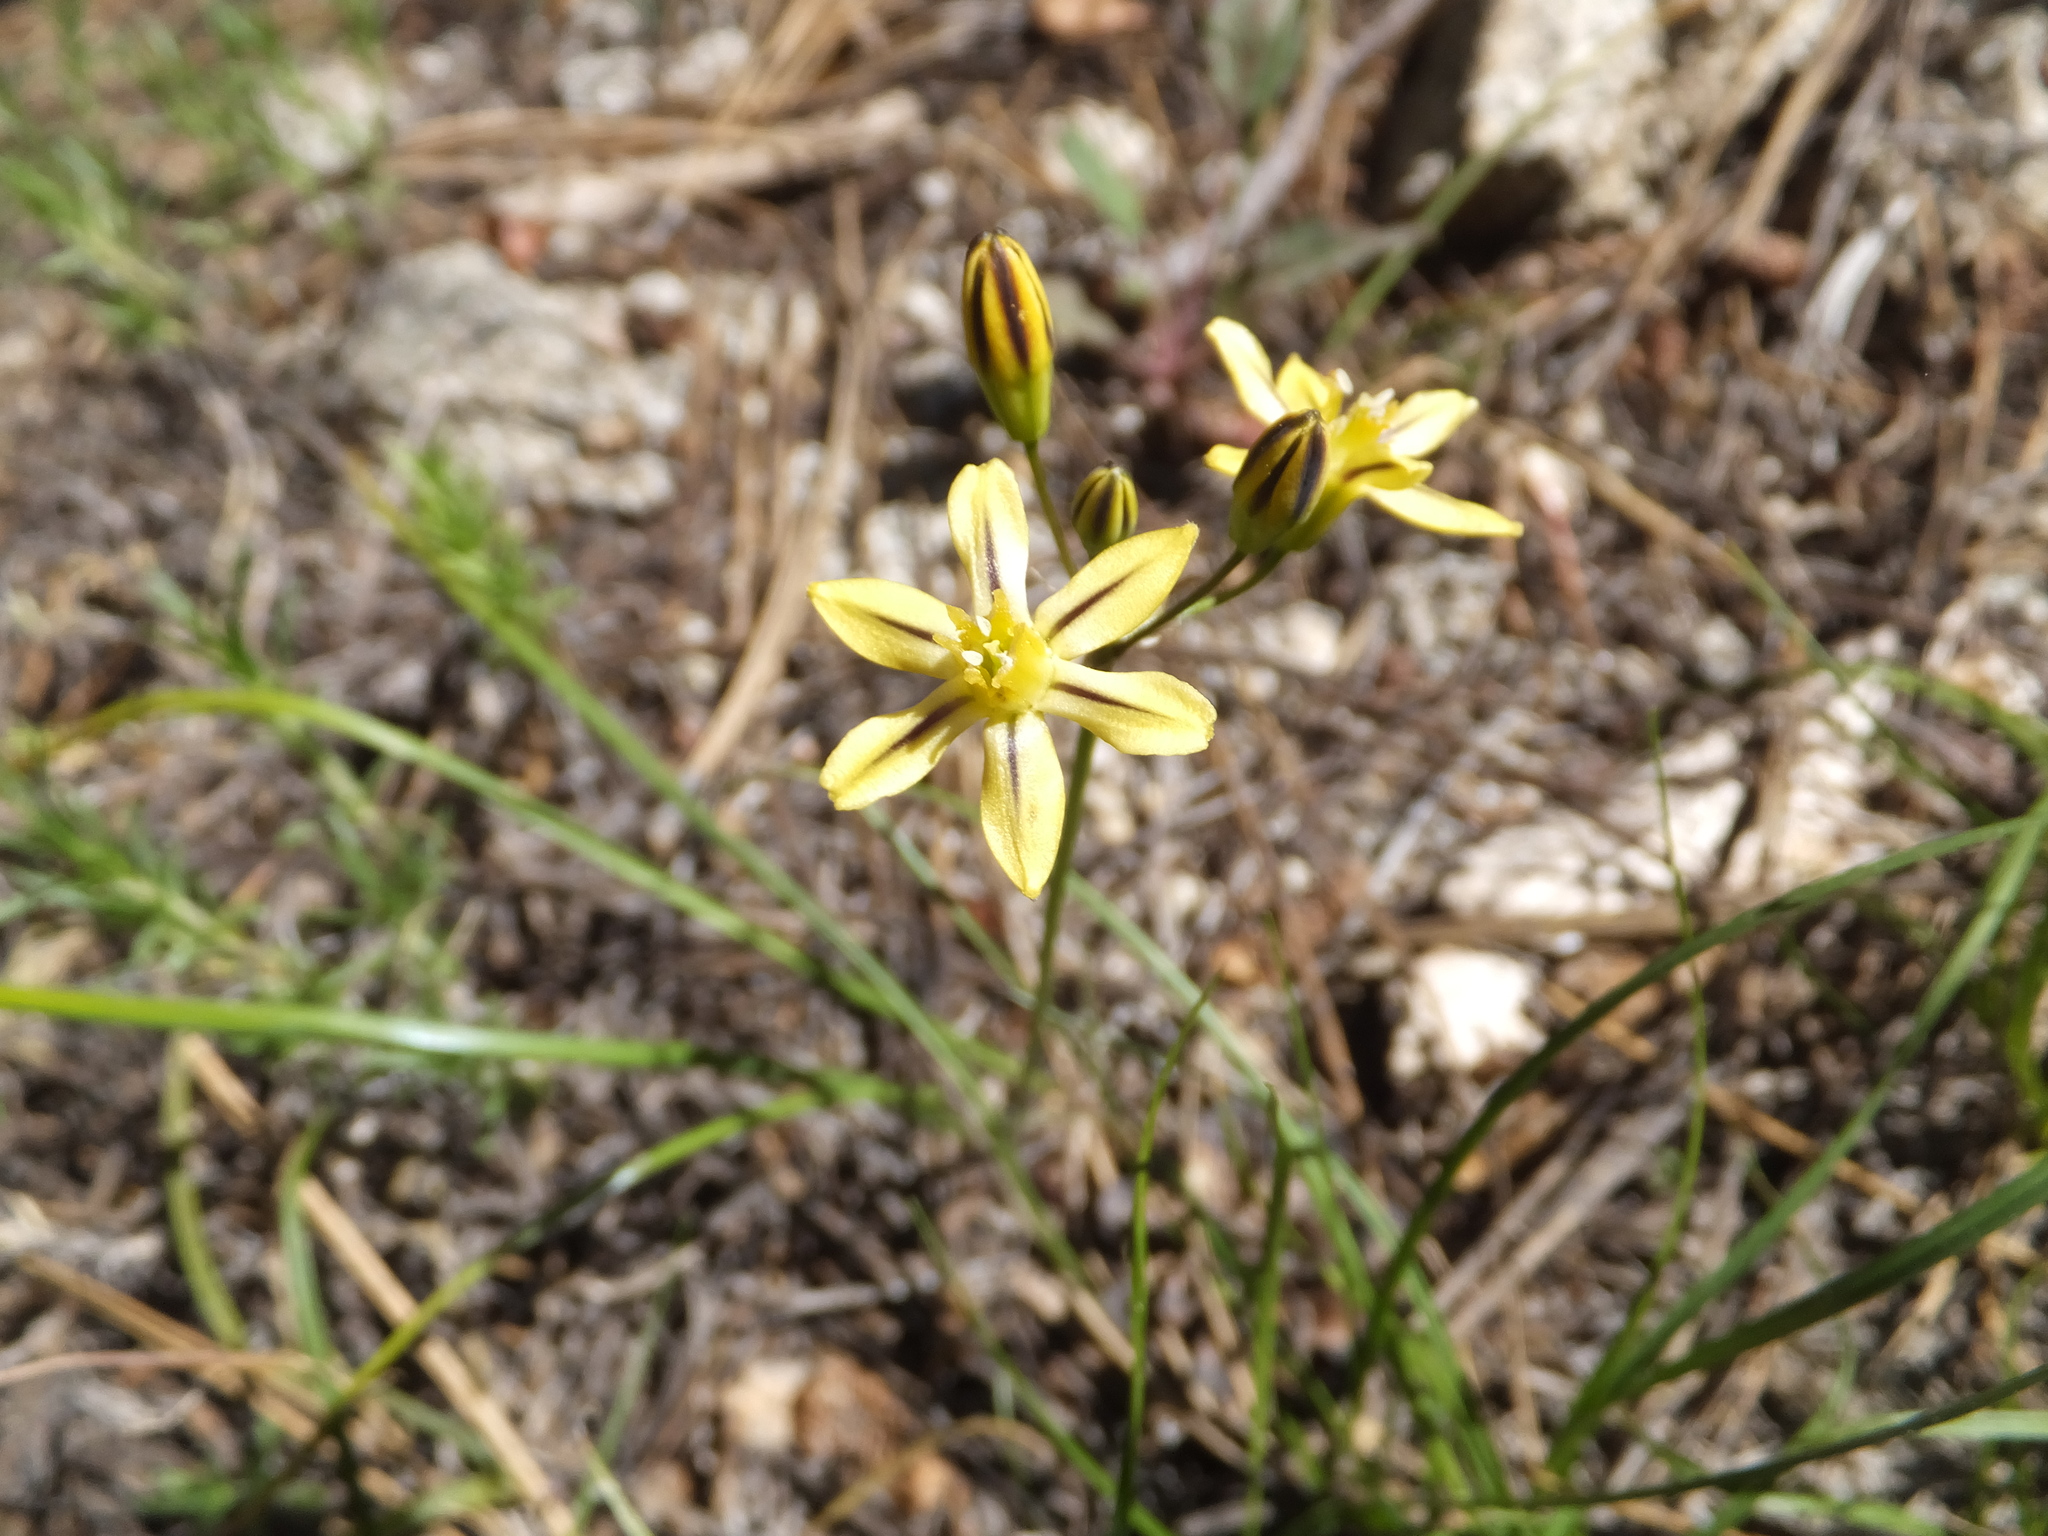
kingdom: Plantae
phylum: Tracheophyta
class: Liliopsida
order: Asparagales
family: Asparagaceae
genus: Triteleia
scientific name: Triteleia ixioides
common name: Yellow-brodiaea
